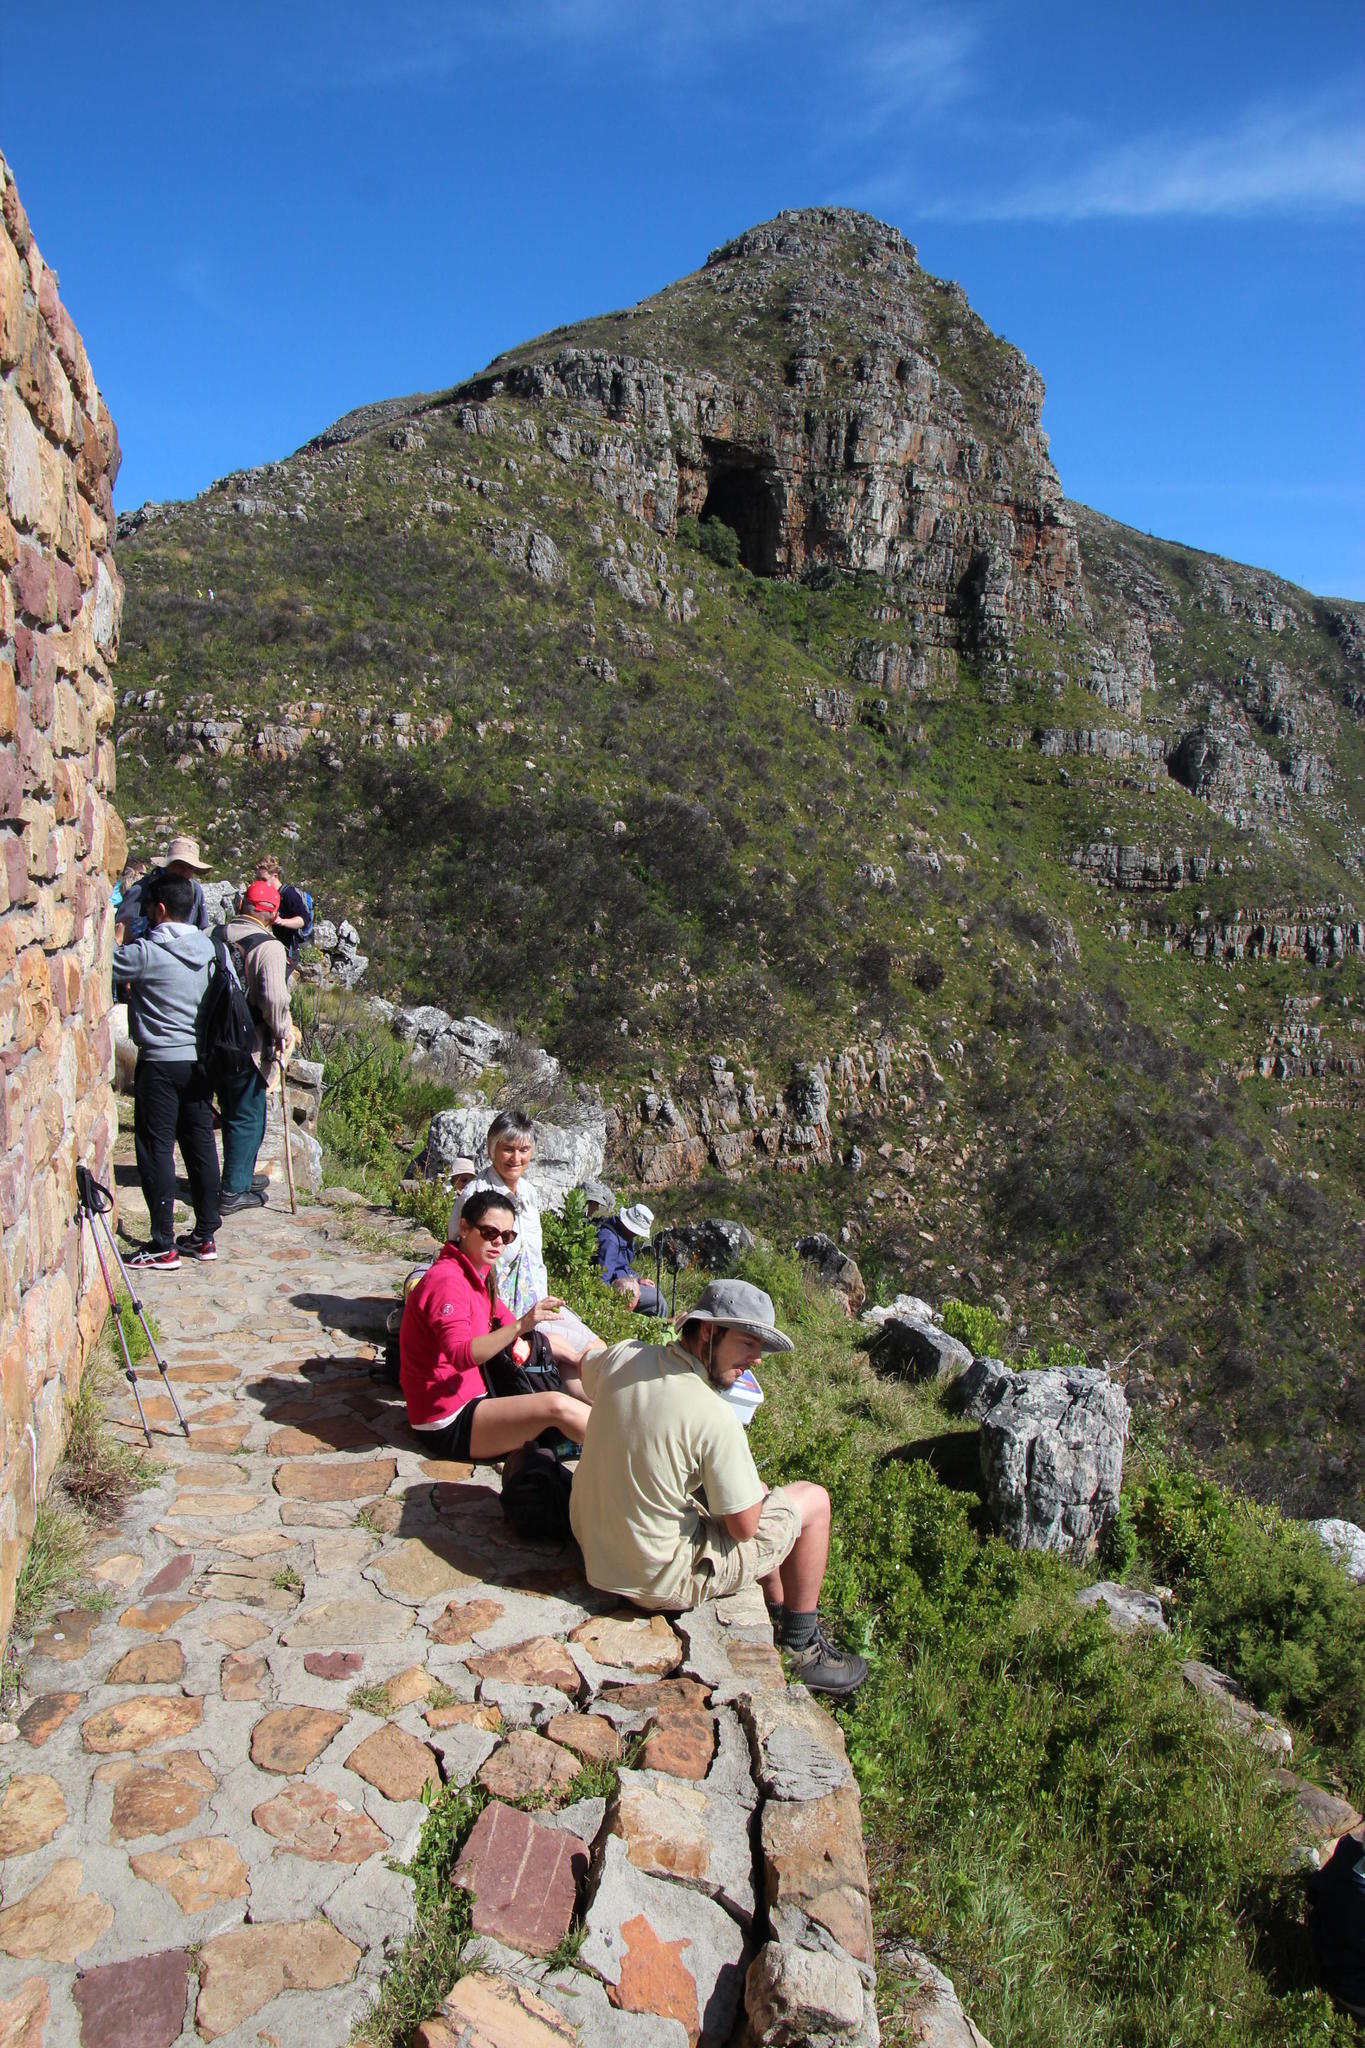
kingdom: Plantae
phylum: Tracheophyta
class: Magnoliopsida
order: Celastrales
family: Celastraceae
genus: Maurocenia
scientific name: Maurocenia frangula
